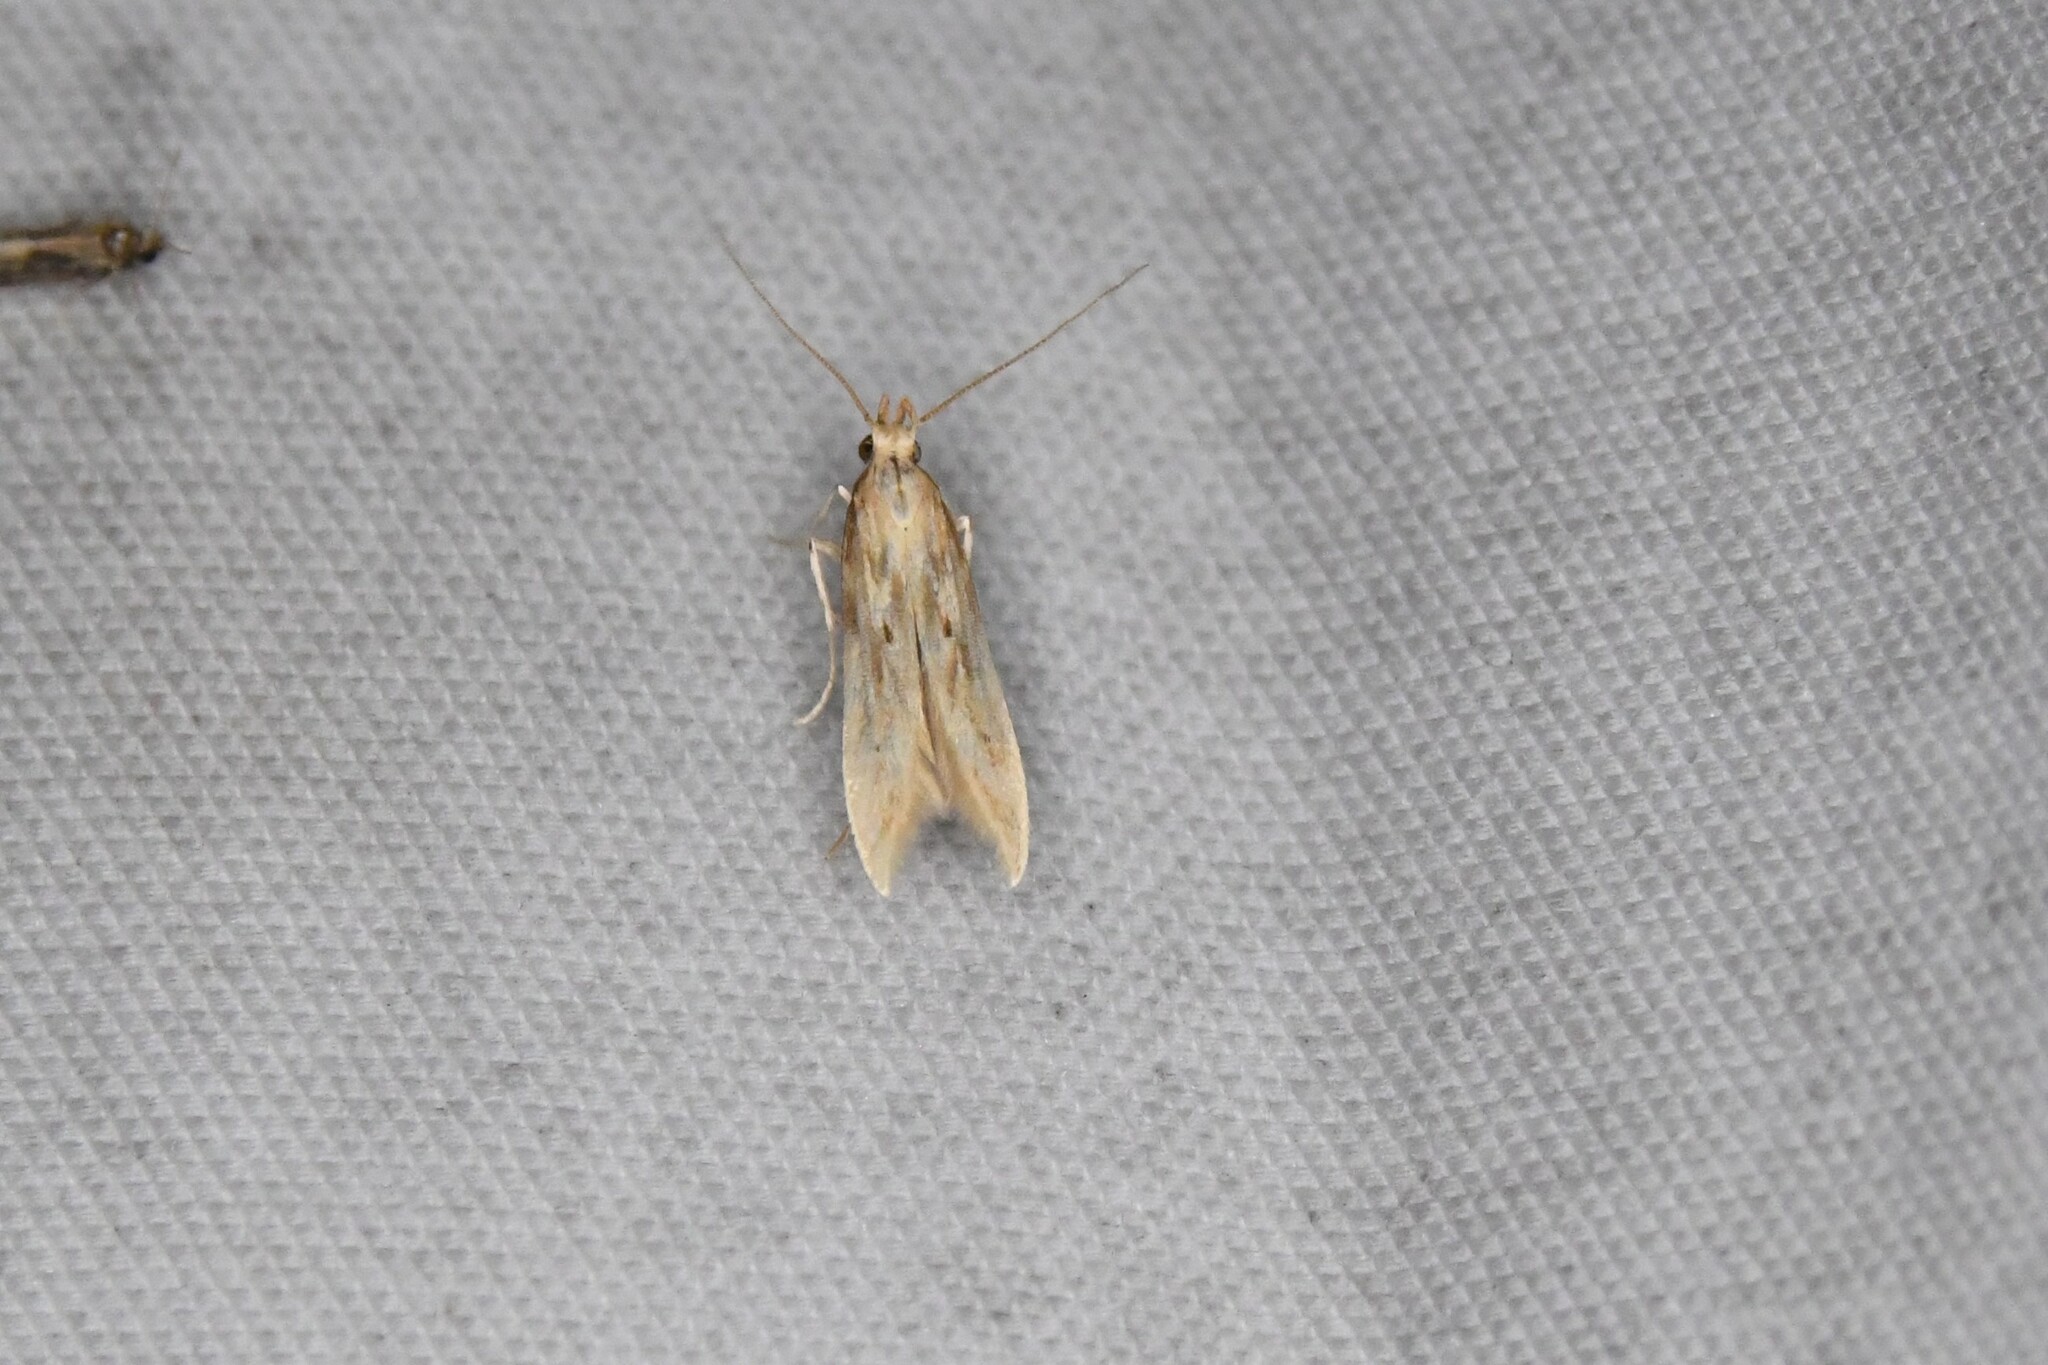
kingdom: Animalia
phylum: Arthropoda
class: Insecta
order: Lepidoptera
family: Gelechiidae
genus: Metzneria
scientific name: Metzneria lappella
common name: Burdock neb
